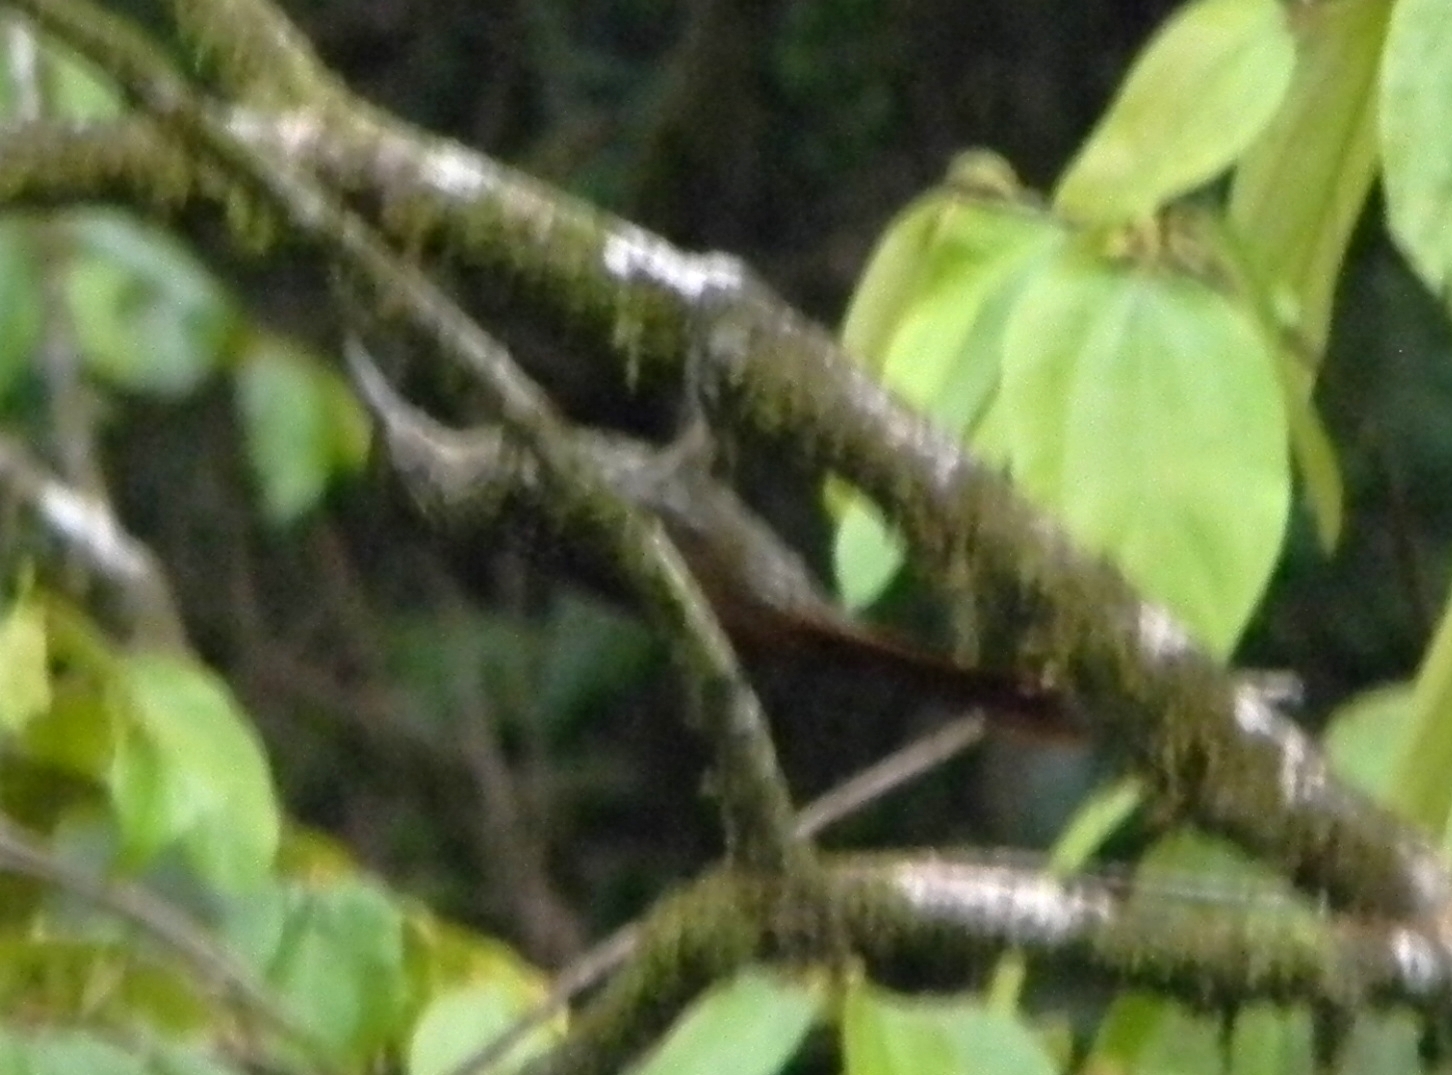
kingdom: Animalia
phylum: Chordata
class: Aves
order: Passeriformes
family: Furnariidae
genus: Xiphorhynchus
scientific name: Xiphorhynchus lachrymosus
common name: Black-striped woodcreeper
